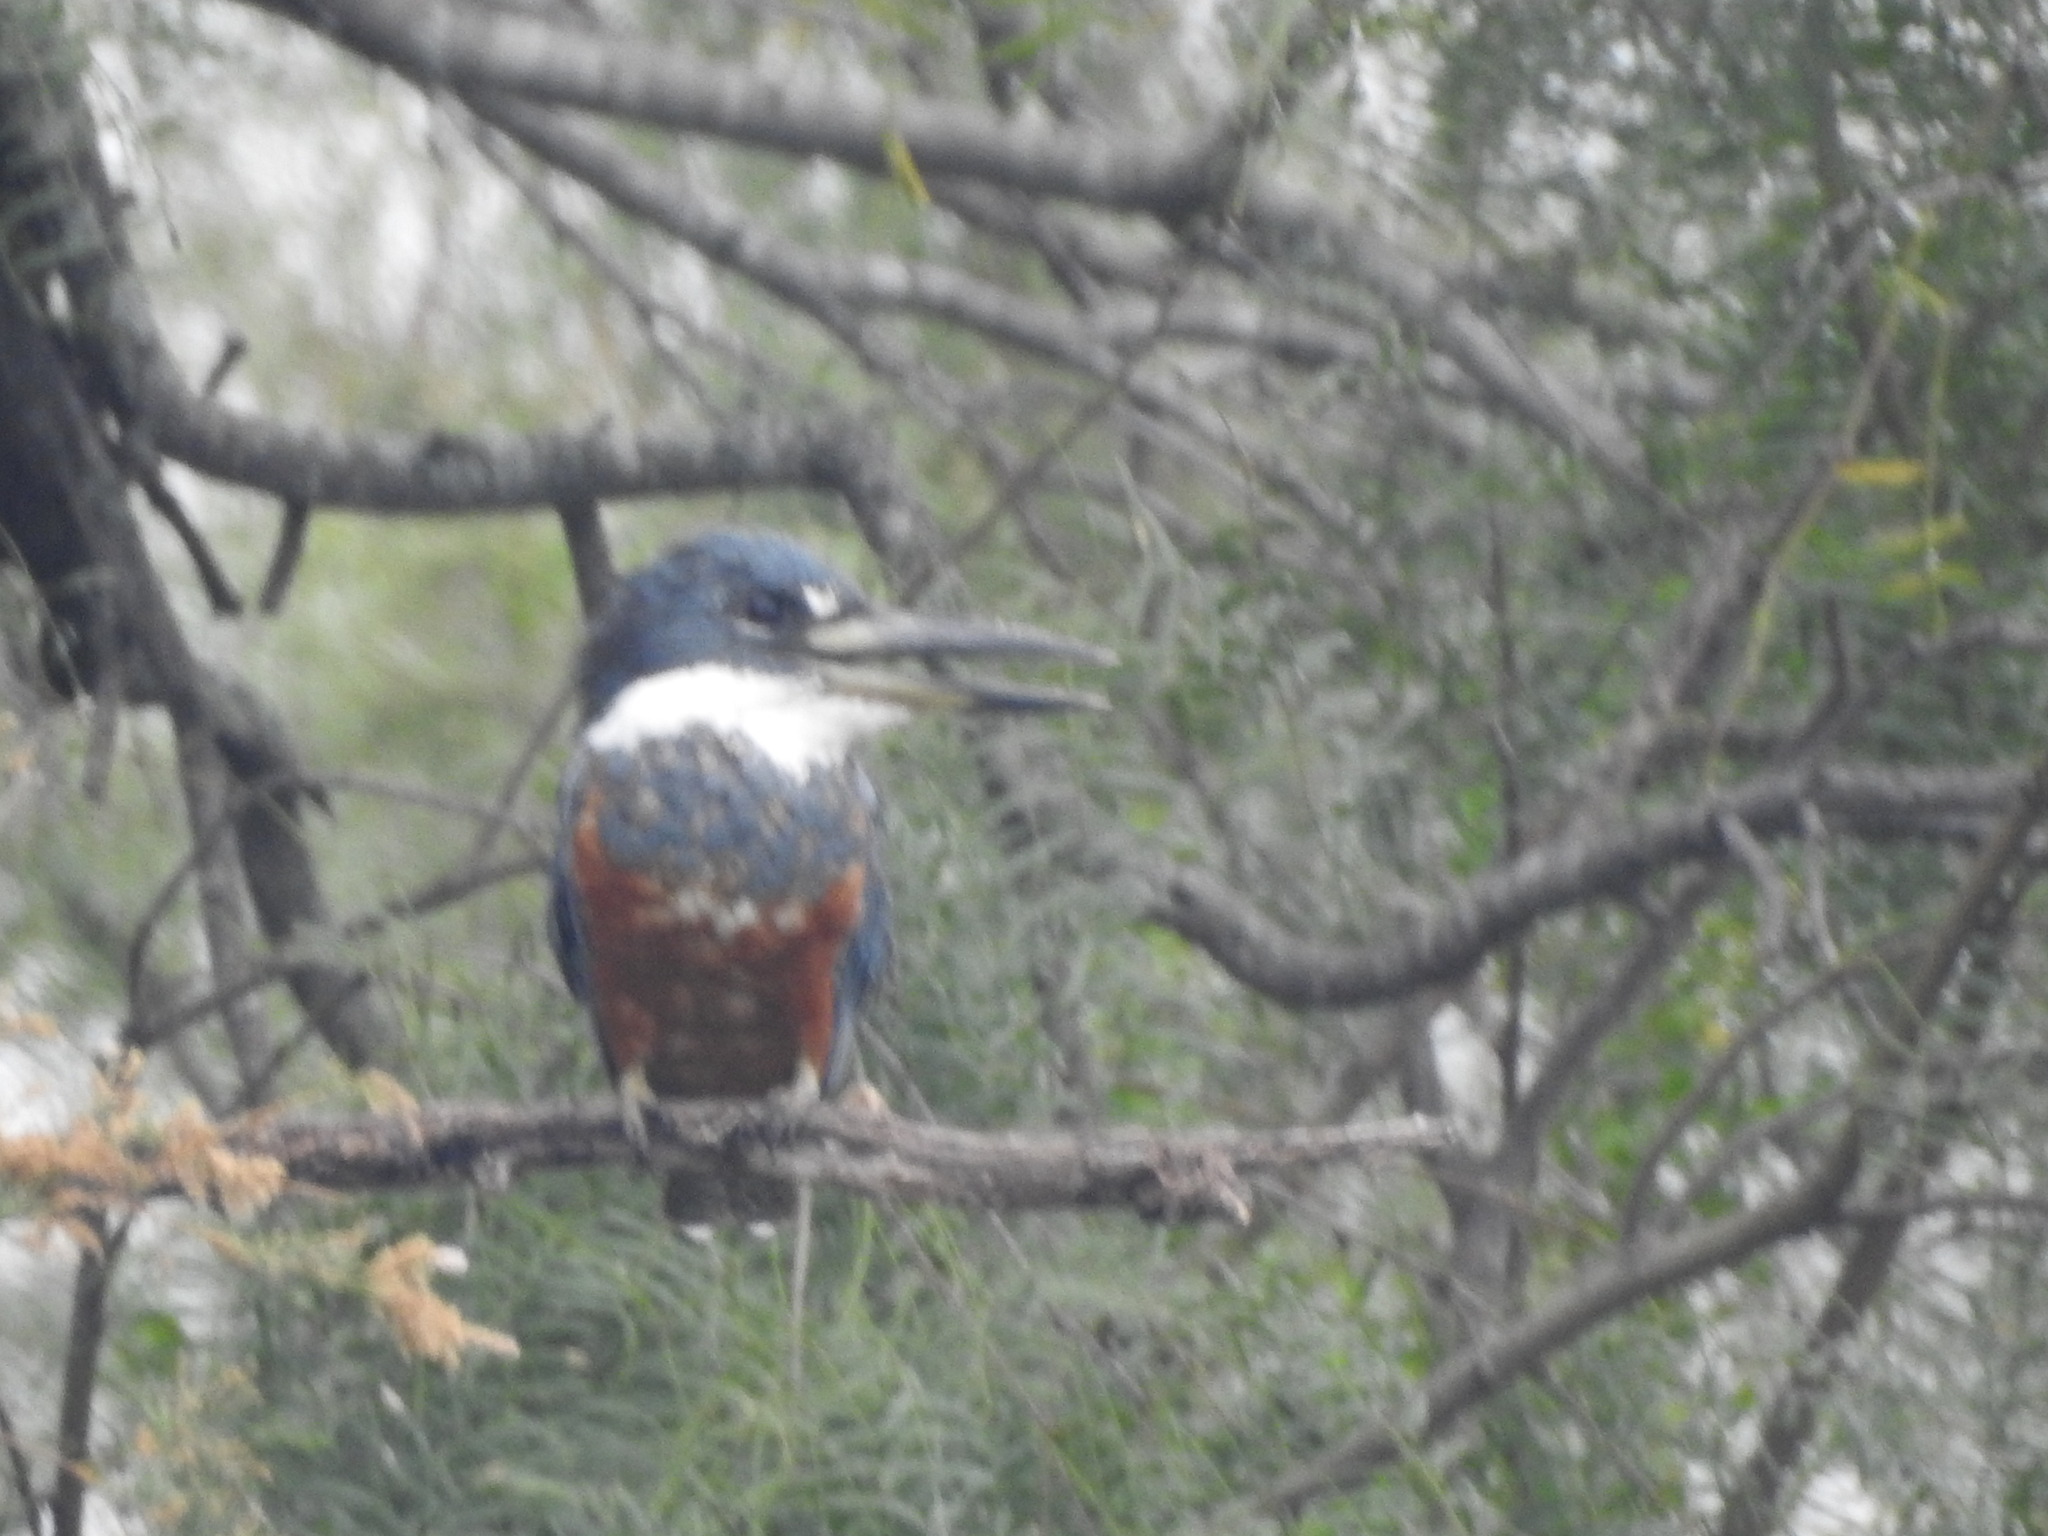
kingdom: Animalia
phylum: Chordata
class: Aves
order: Coraciiformes
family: Alcedinidae
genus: Megaceryle
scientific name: Megaceryle torquata
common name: Ringed kingfisher
